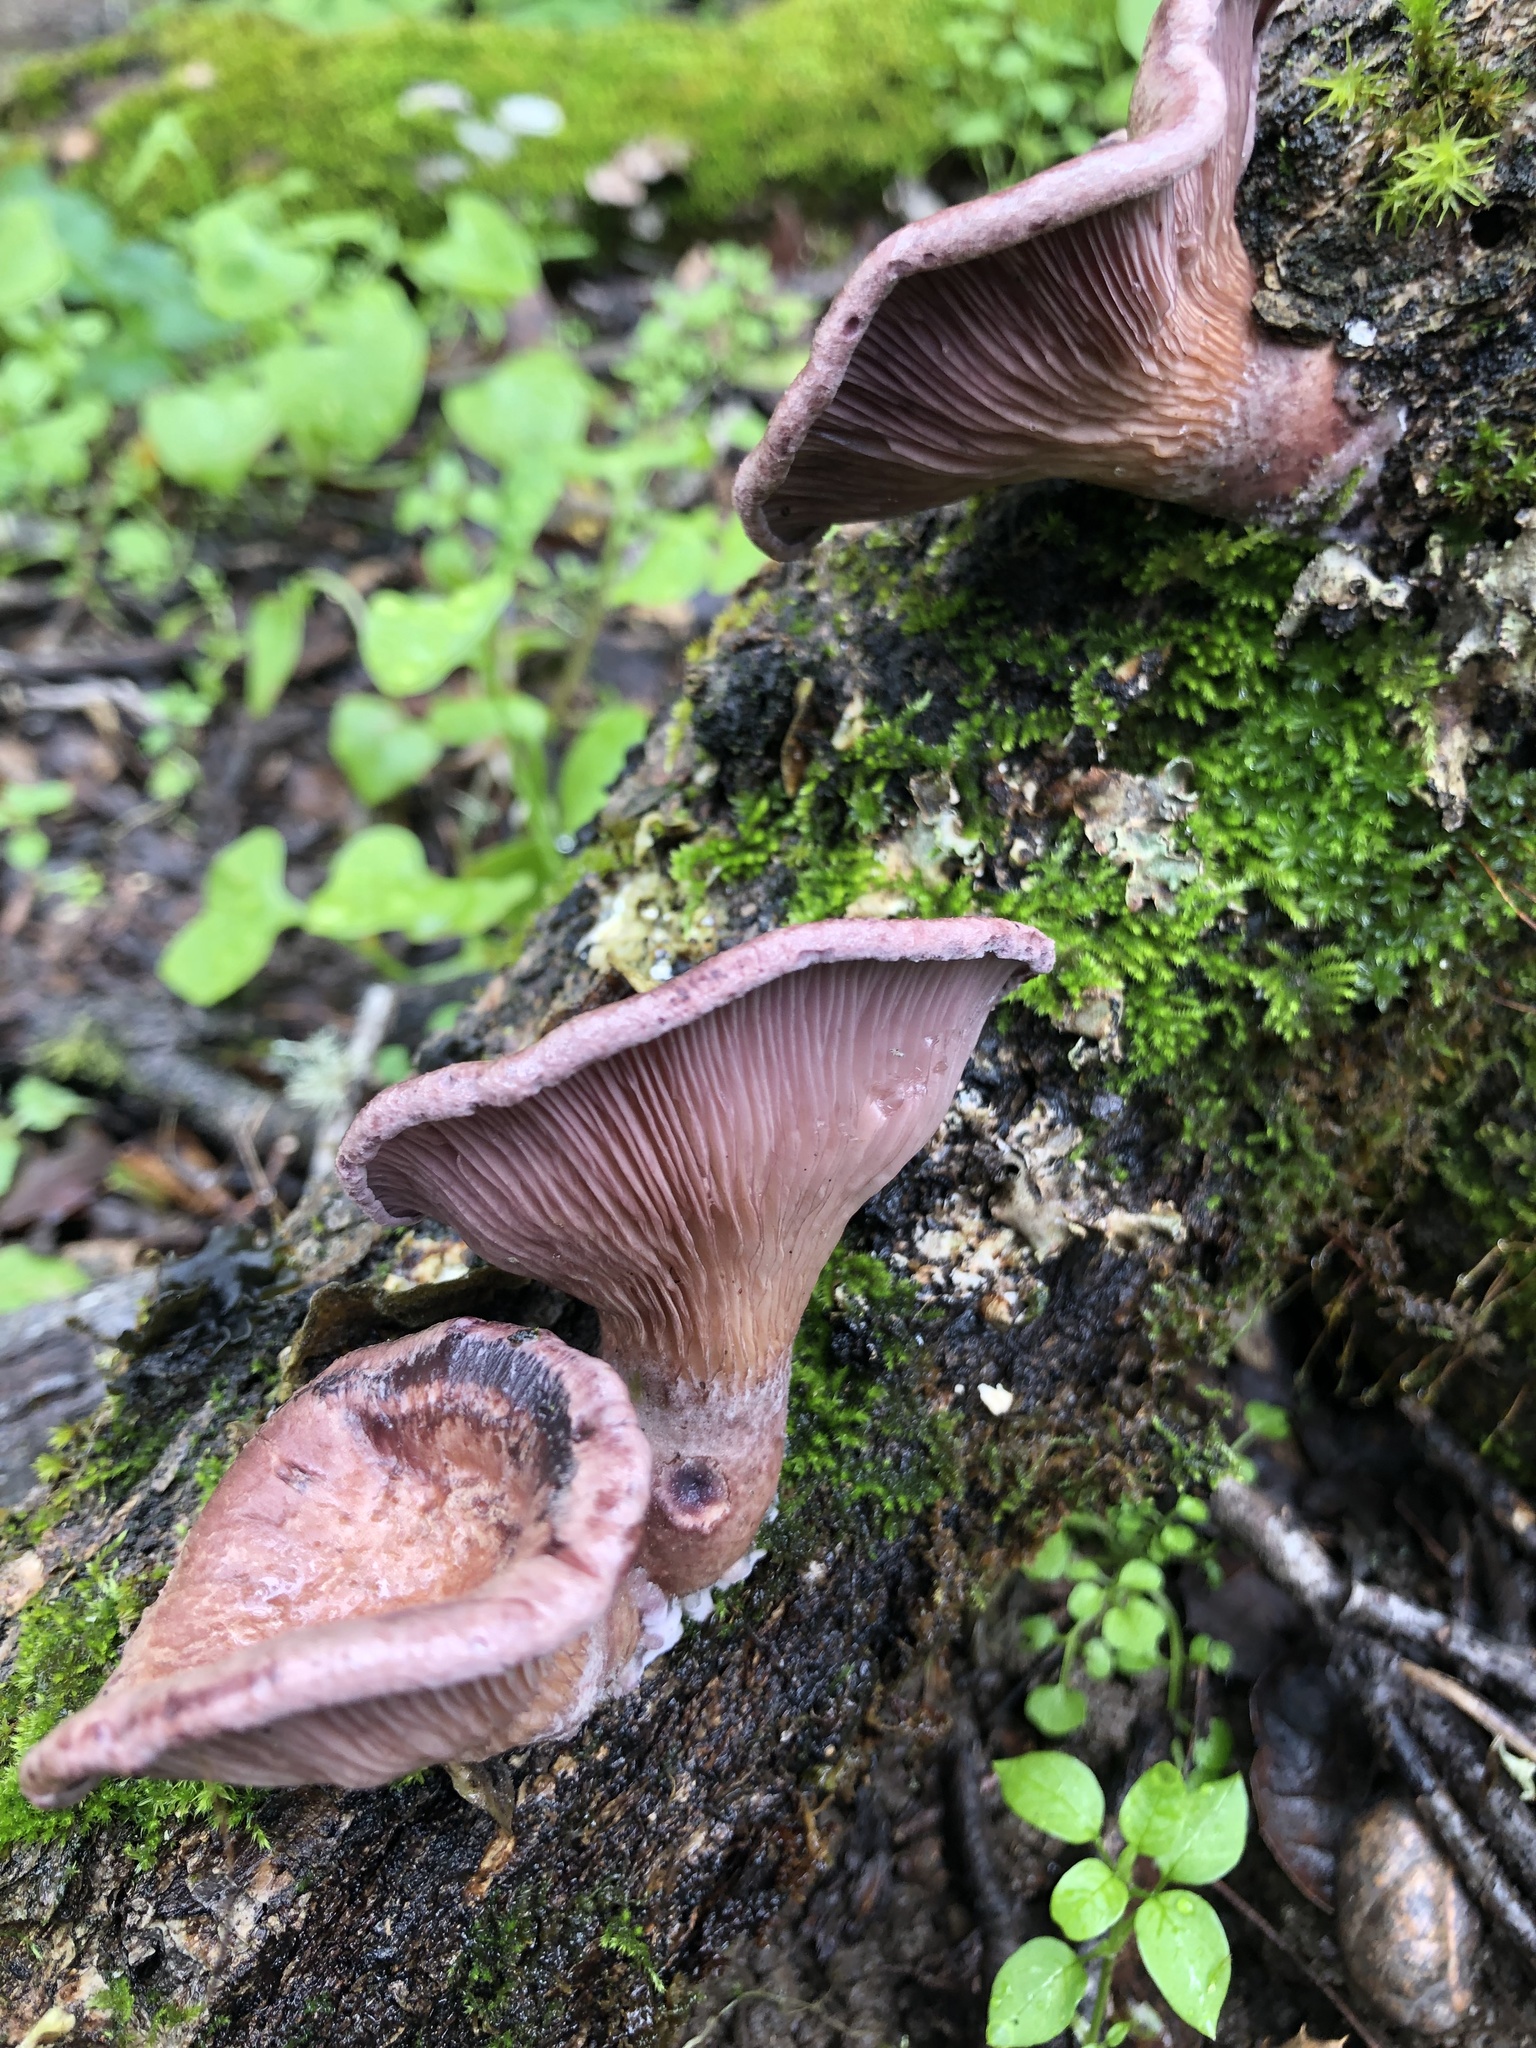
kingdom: Fungi
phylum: Basidiomycota
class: Agaricomycetes
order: Polyporales
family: Panaceae
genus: Panus
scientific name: Panus conchatus
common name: Lilac oysterling
